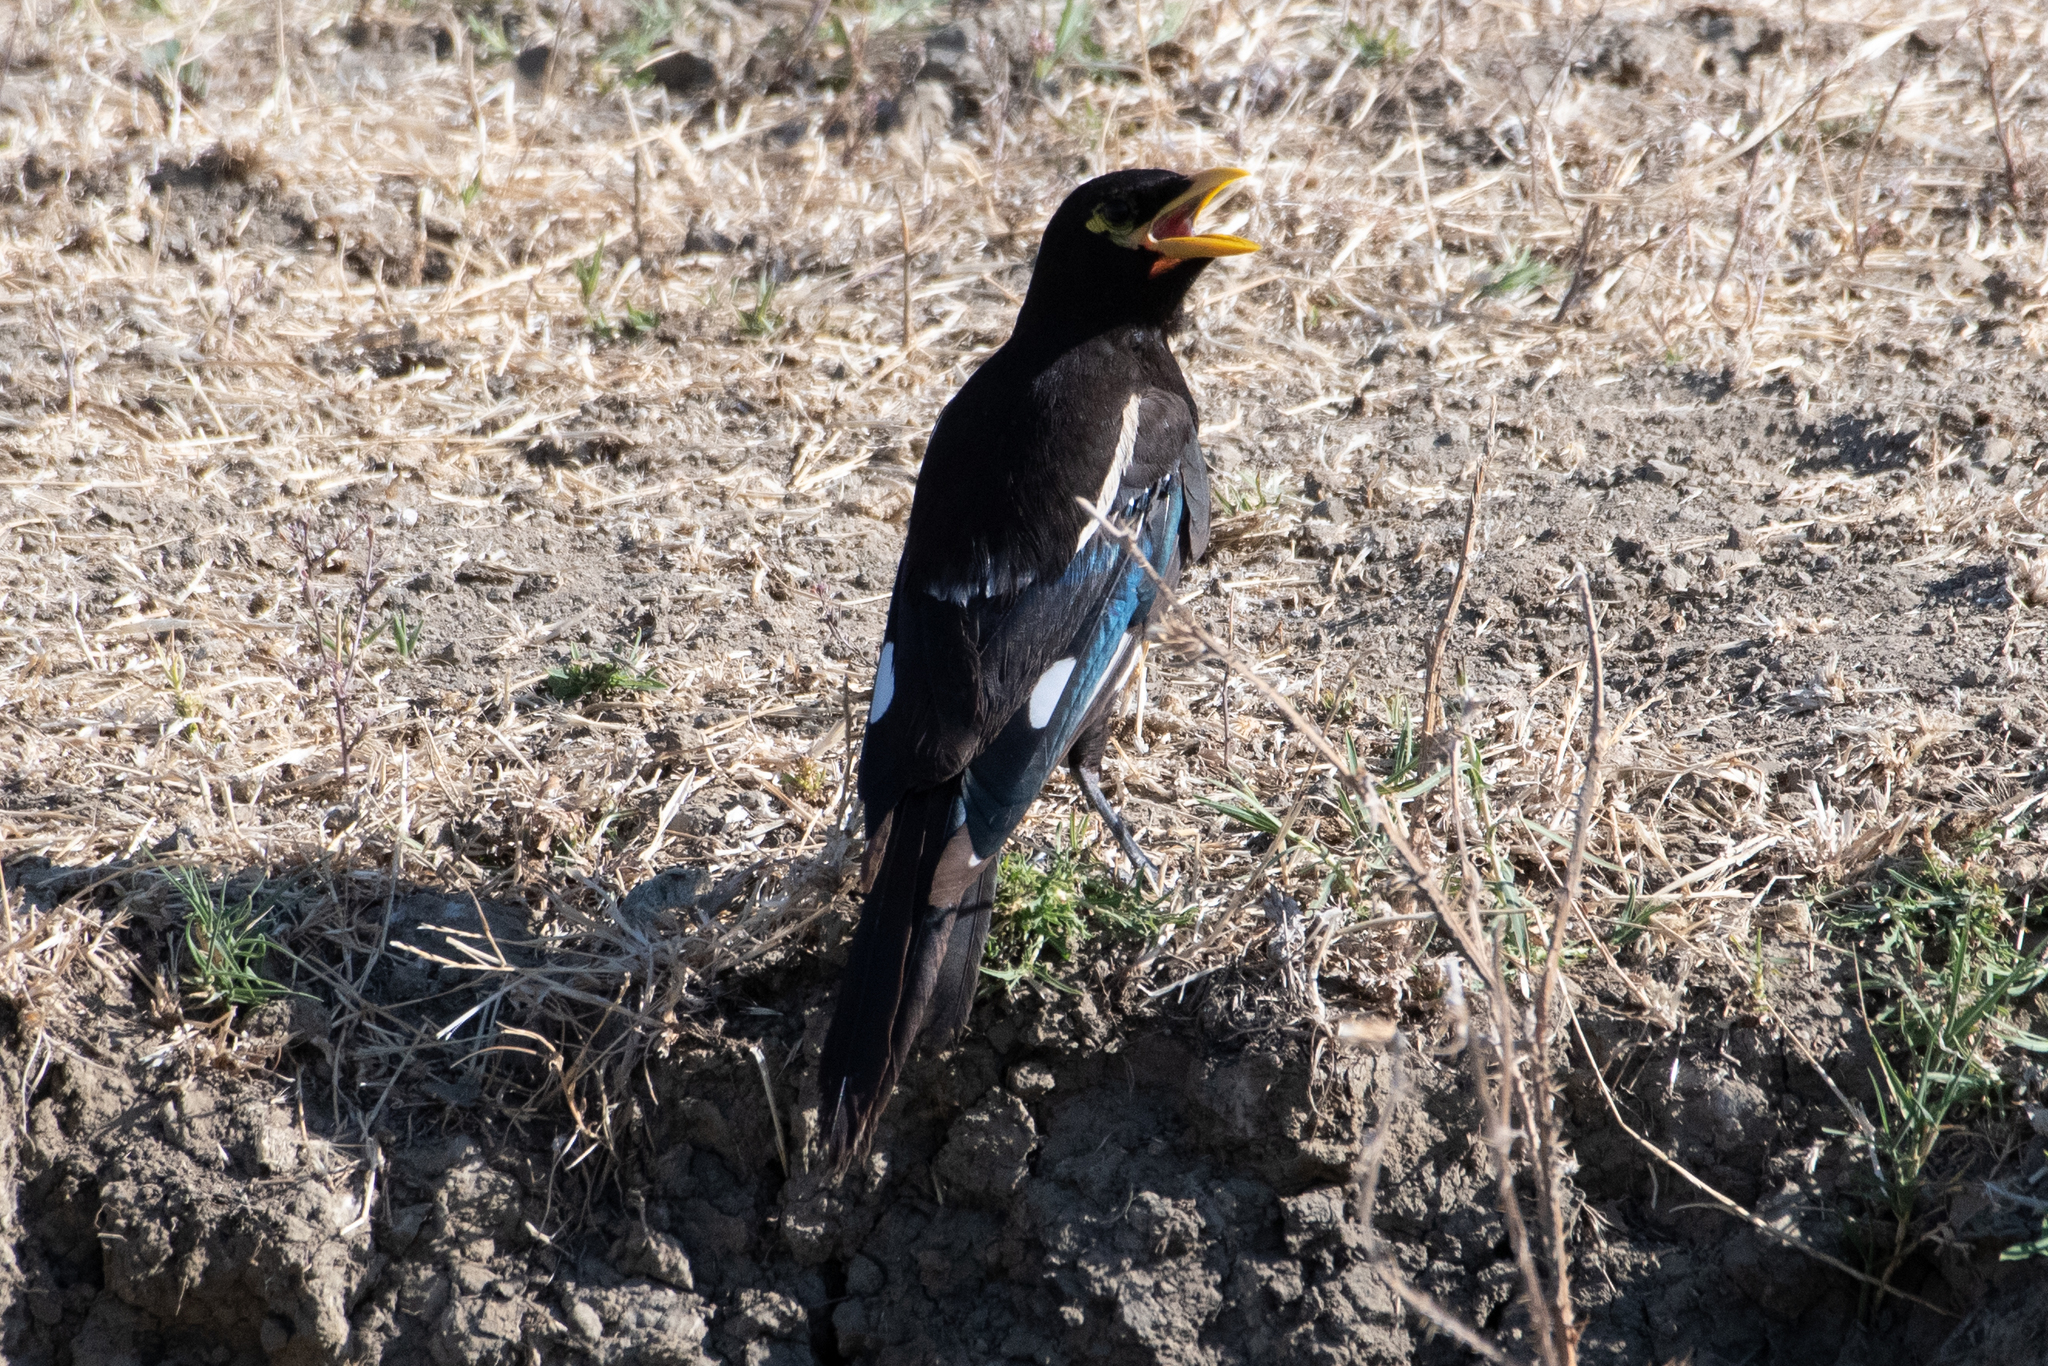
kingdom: Animalia
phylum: Chordata
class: Aves
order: Passeriformes
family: Corvidae
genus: Pica
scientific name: Pica nuttalli
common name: Yellow-billed magpie
